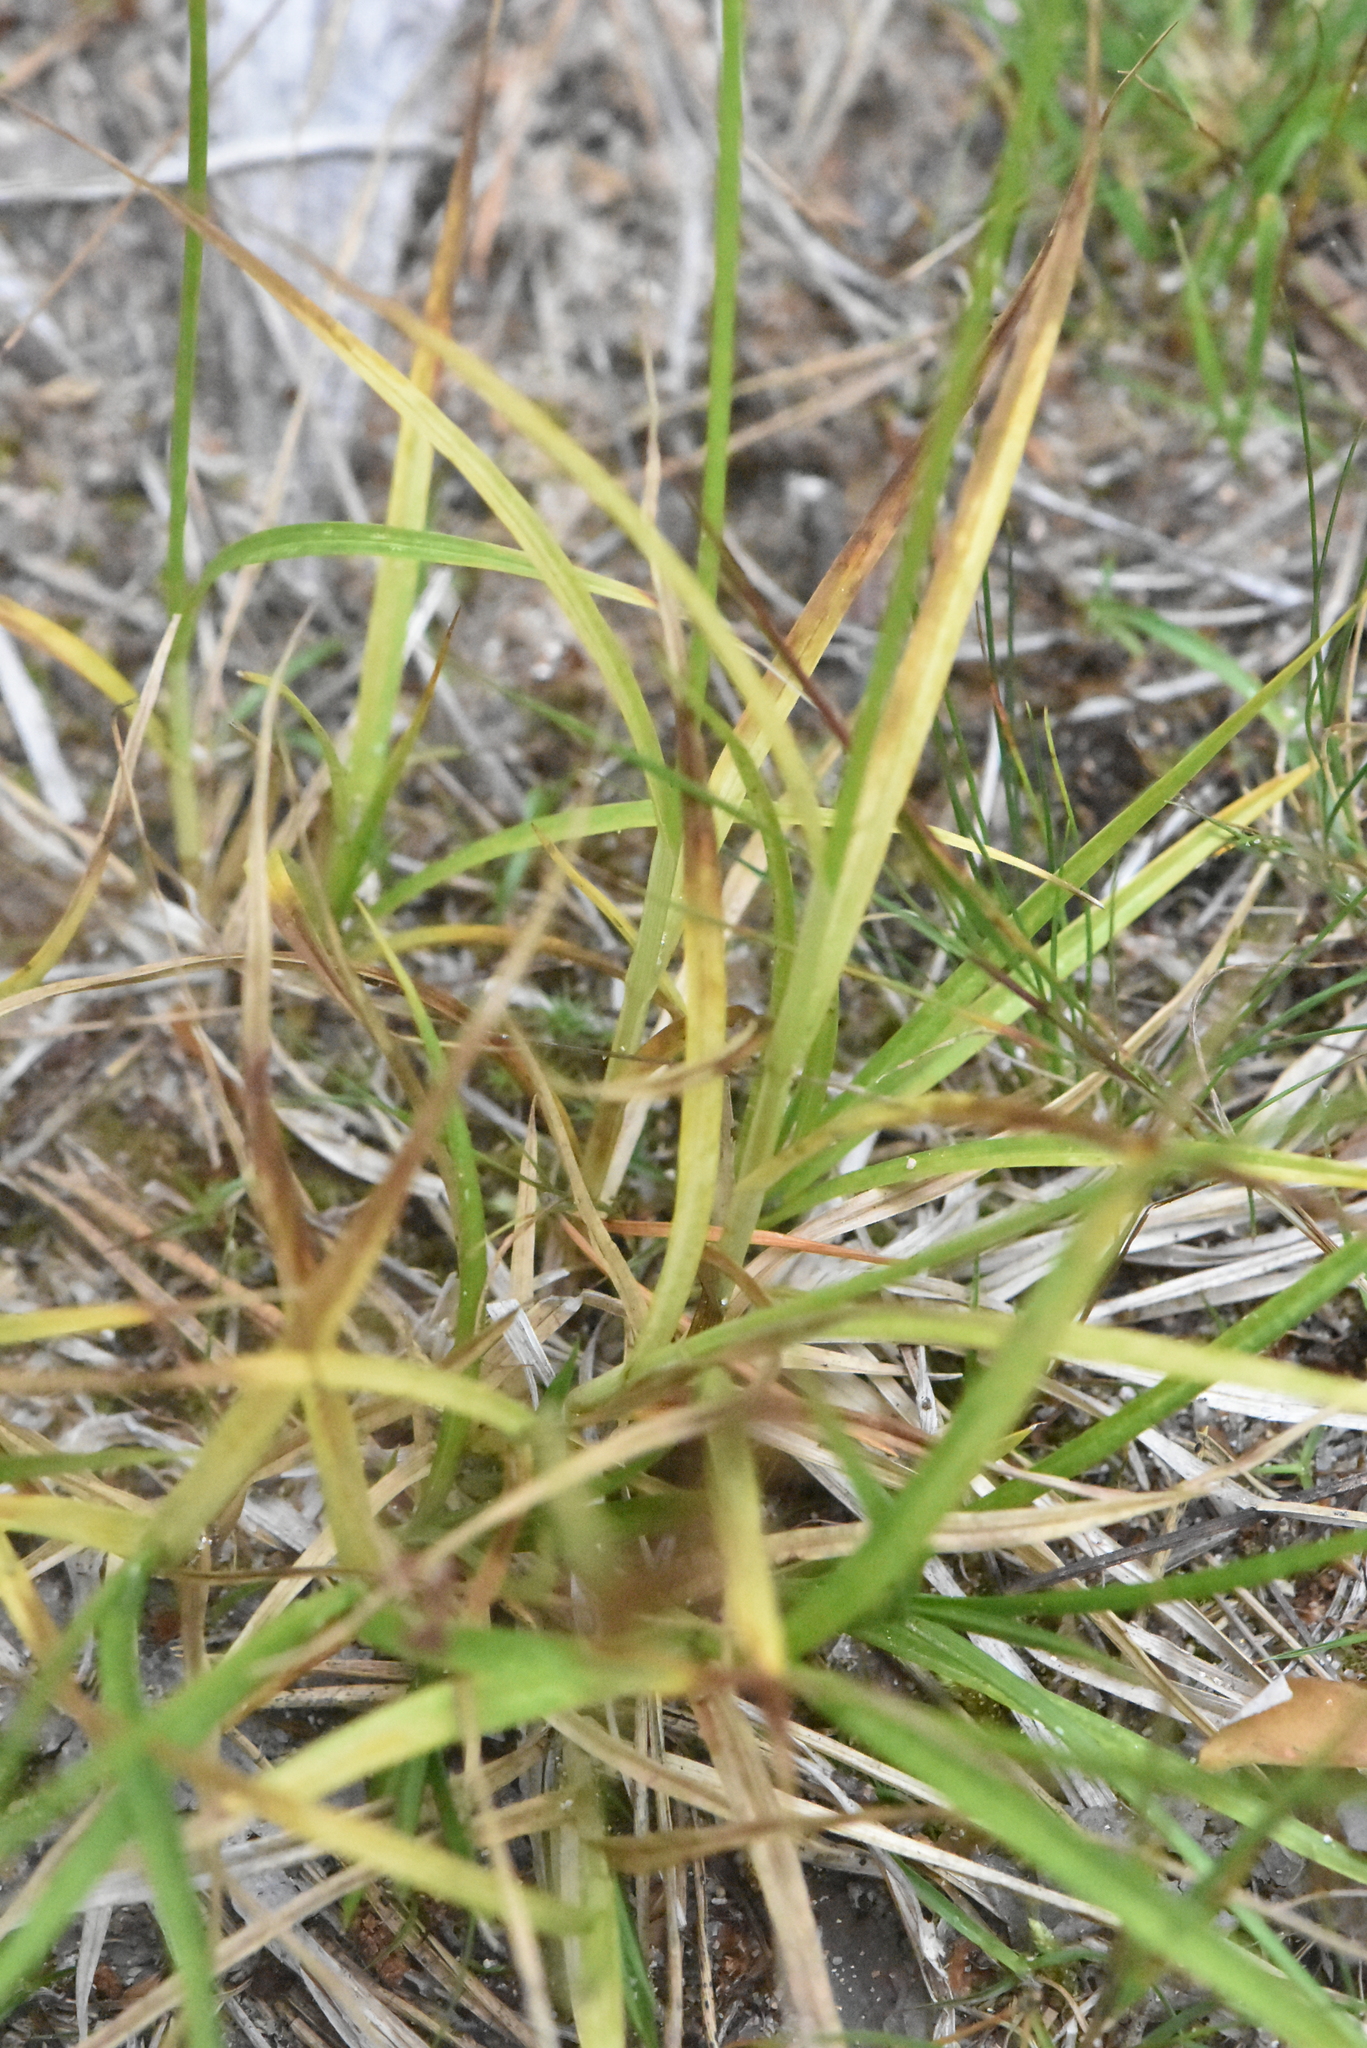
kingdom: Plantae
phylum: Tracheophyta
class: Liliopsida
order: Poales
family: Cyperaceae
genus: Carex
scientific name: Carex leporina
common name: Oval sedge
